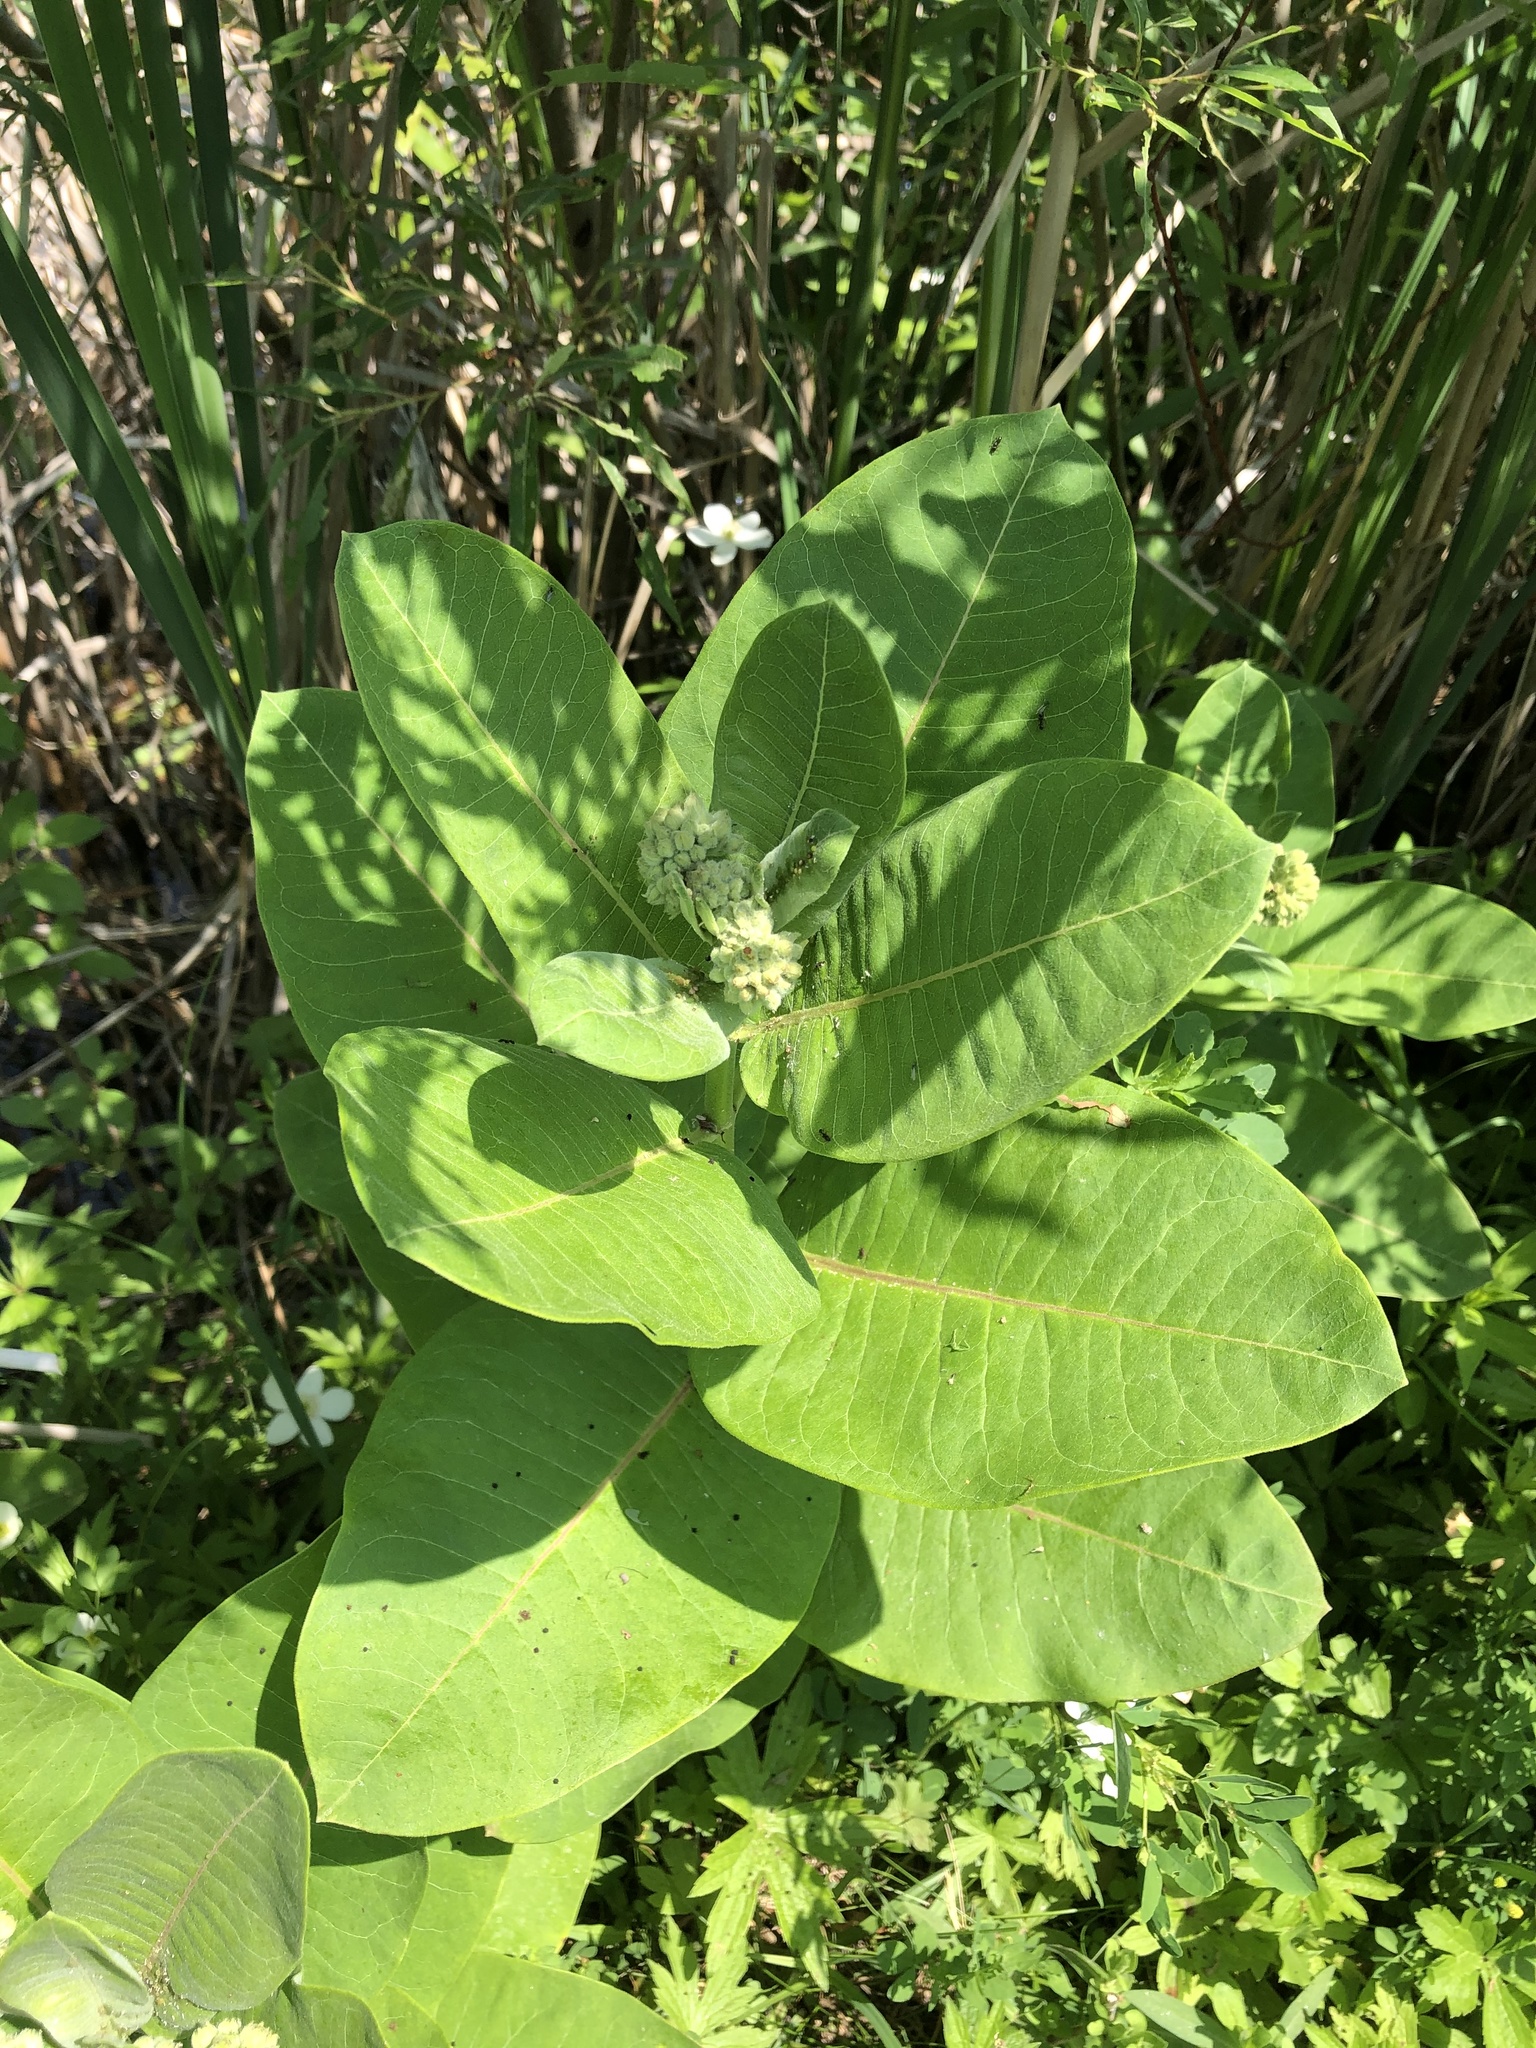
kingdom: Plantae
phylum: Tracheophyta
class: Magnoliopsida
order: Gentianales
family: Apocynaceae
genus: Asclepias
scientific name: Asclepias syriaca
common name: Common milkweed
